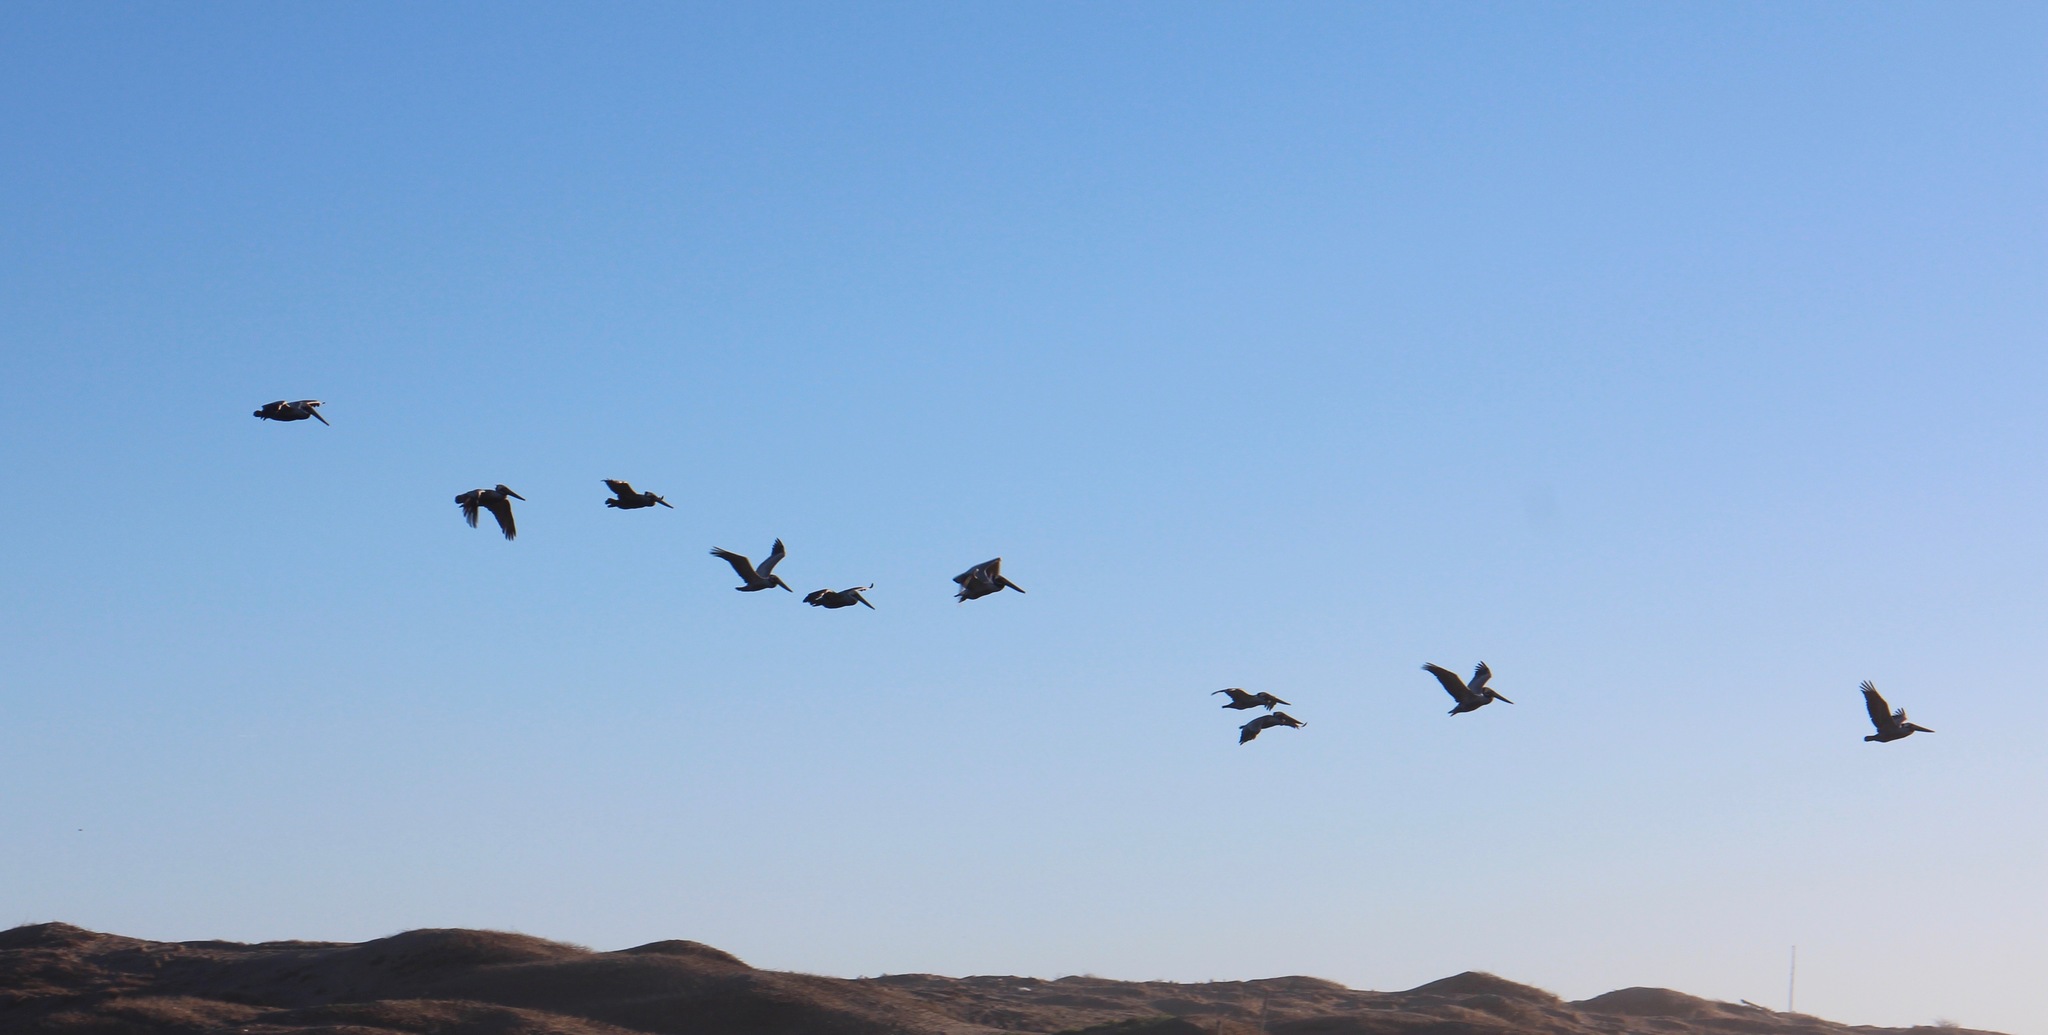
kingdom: Animalia
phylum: Chordata
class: Aves
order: Pelecaniformes
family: Pelecanidae
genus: Pelecanus
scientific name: Pelecanus occidentalis
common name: Brown pelican
